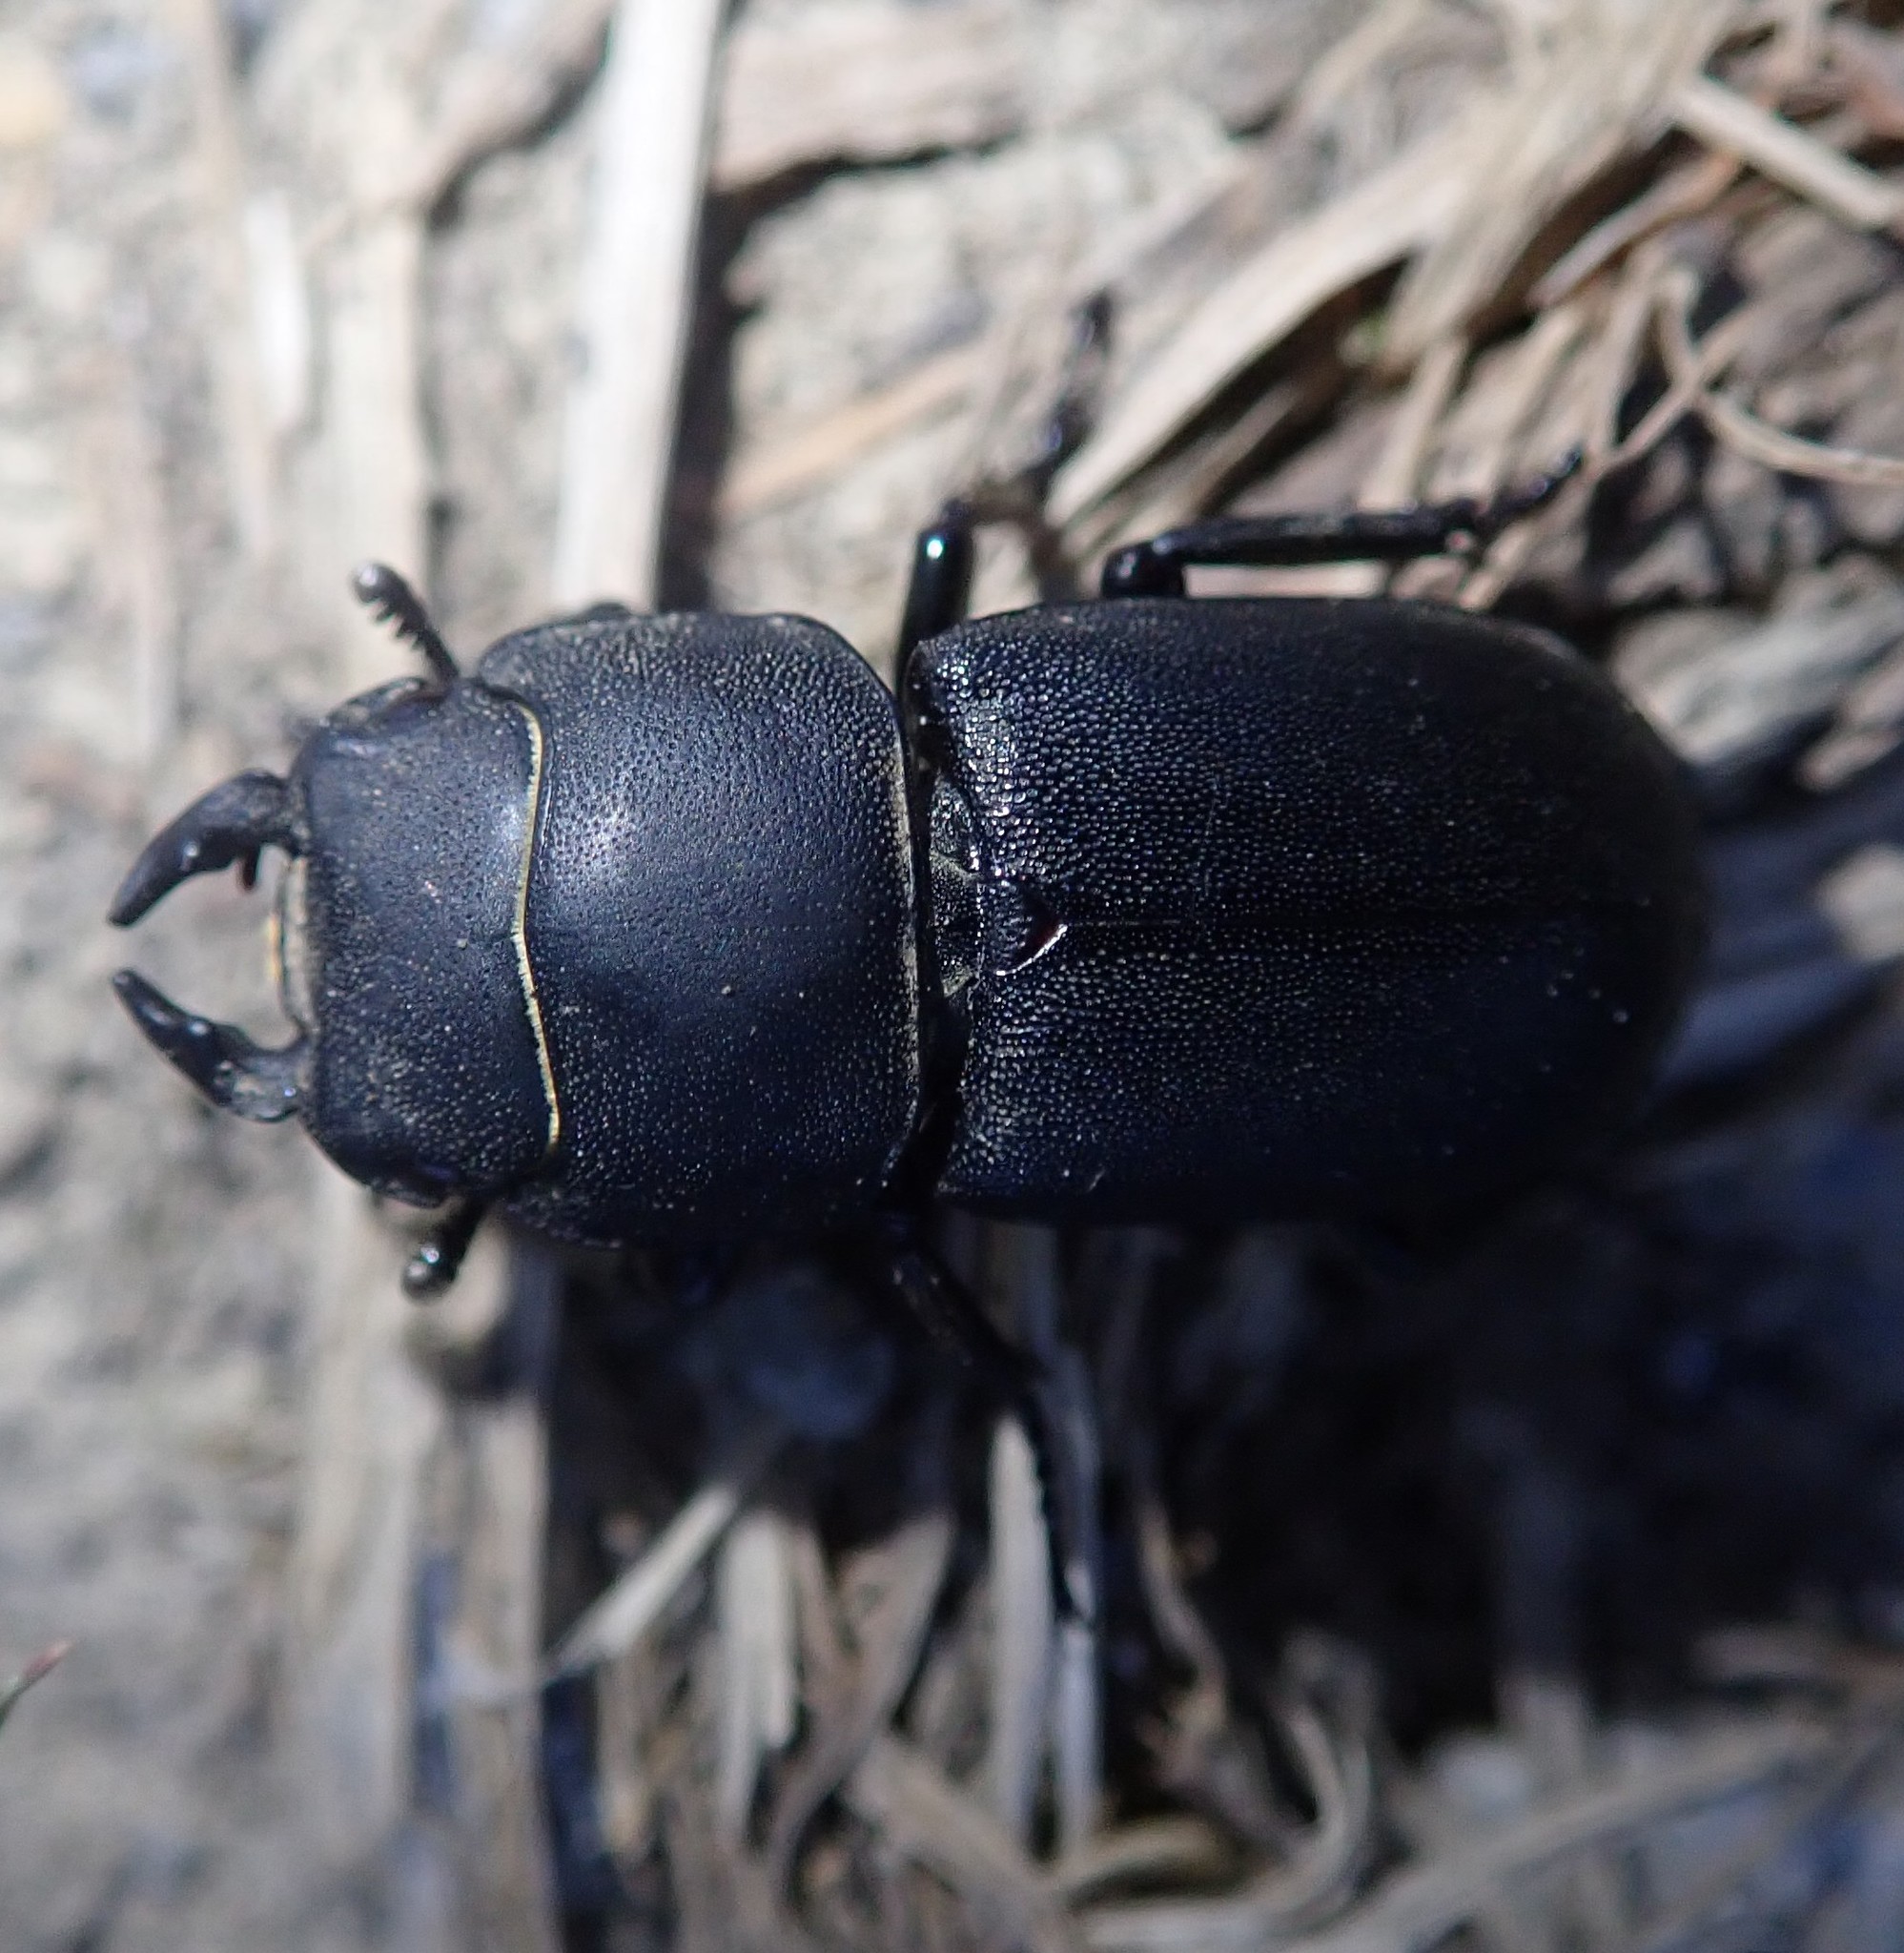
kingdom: Animalia
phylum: Arthropoda
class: Insecta
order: Coleoptera
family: Lucanidae
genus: Dorcus
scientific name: Dorcus parallelipipedus
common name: Lesser stag beetle
